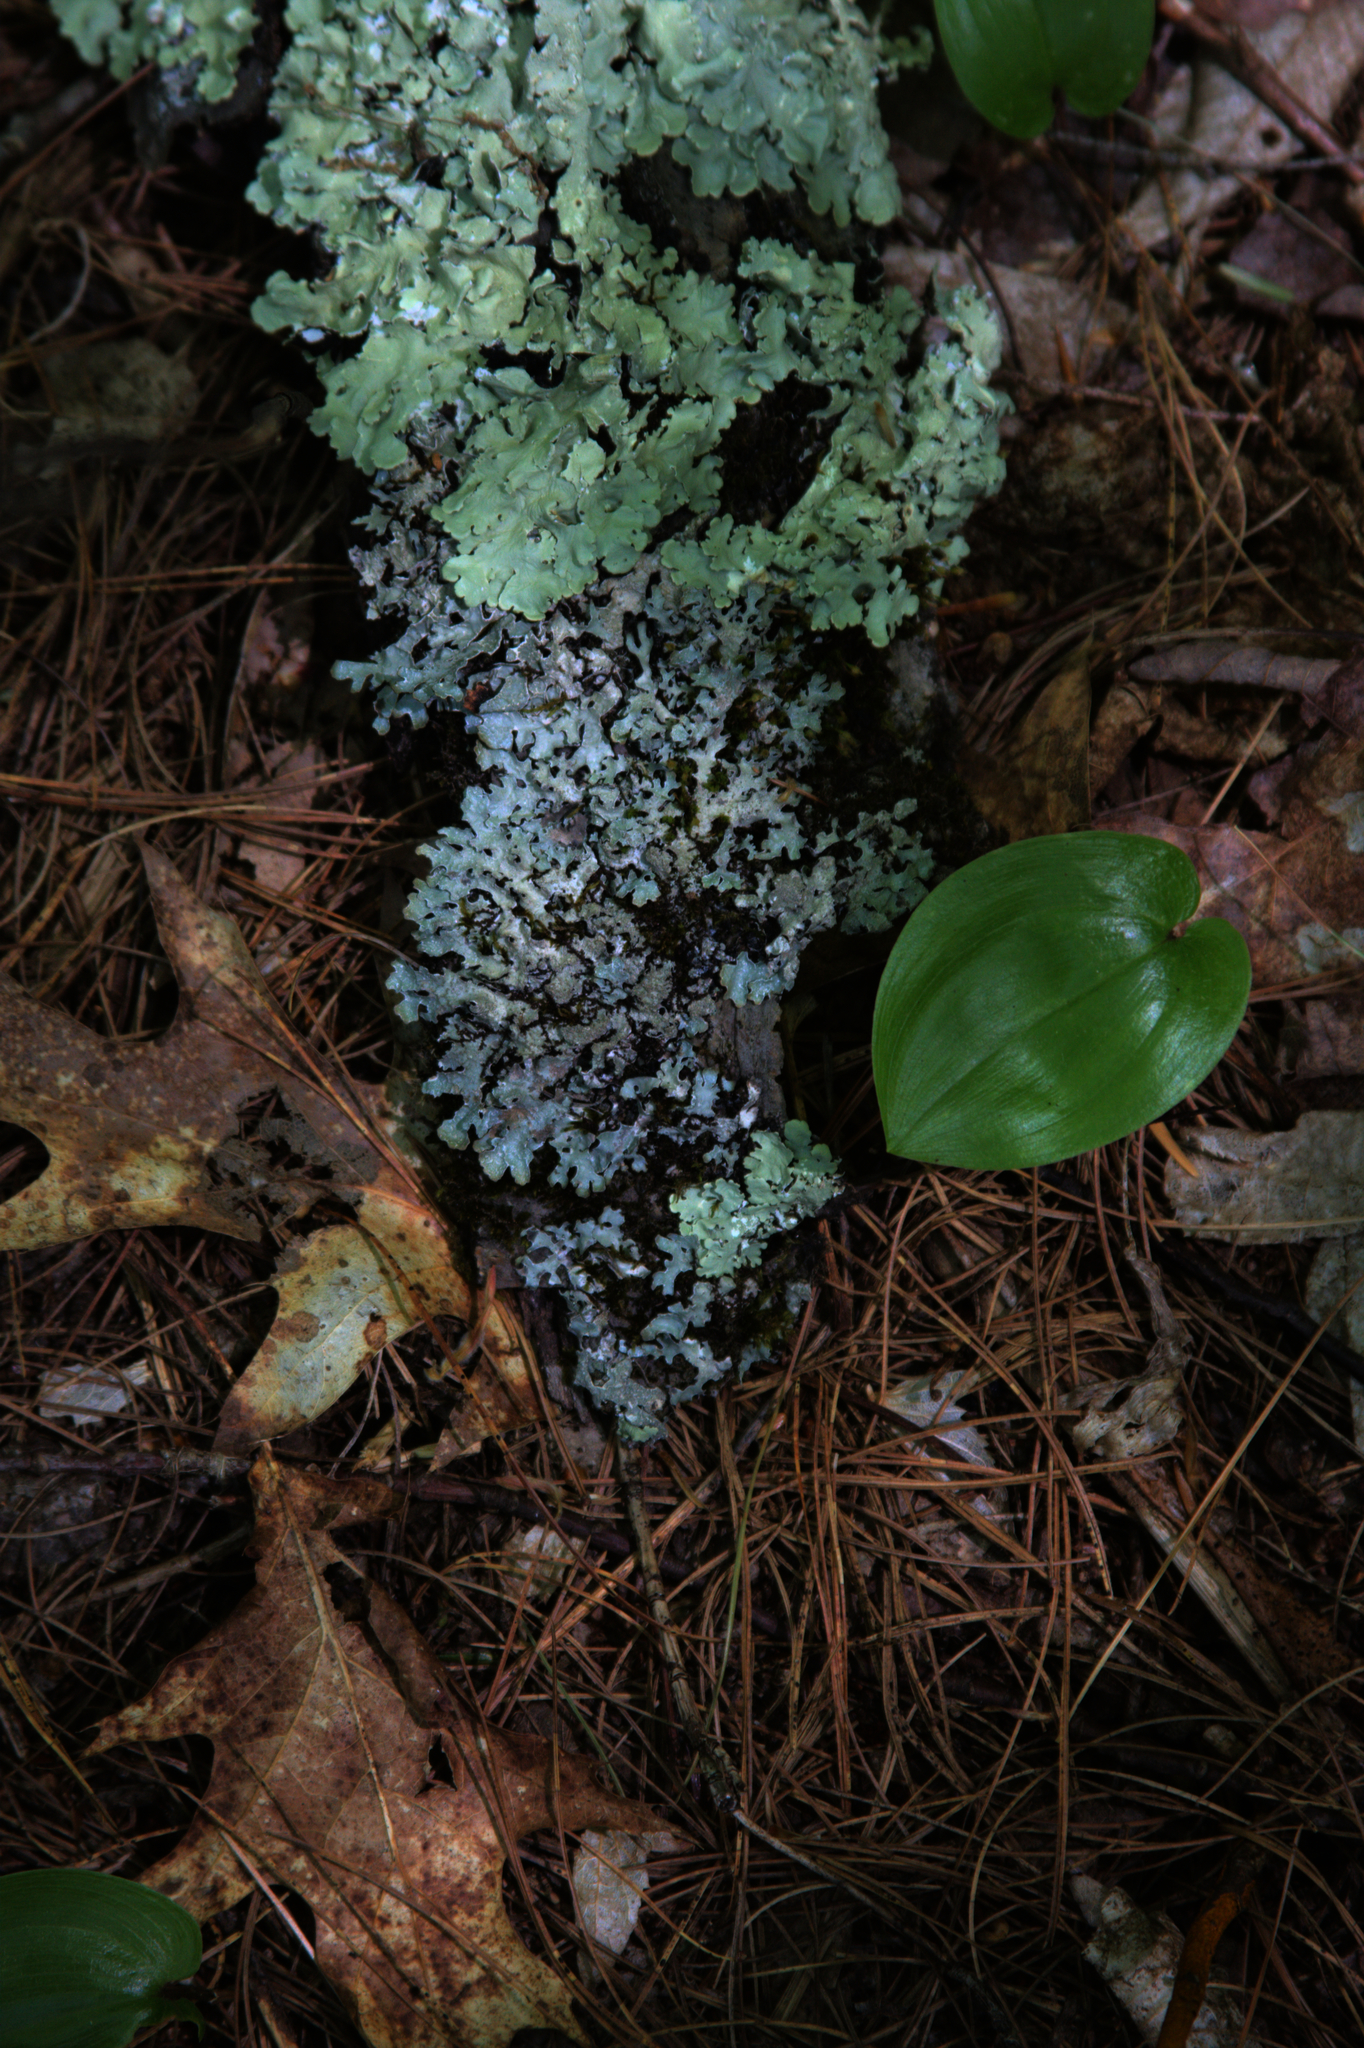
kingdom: Plantae
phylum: Tracheophyta
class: Liliopsida
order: Asparagales
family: Asparagaceae
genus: Maianthemum
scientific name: Maianthemum canadense
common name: False lily-of-the-valley
